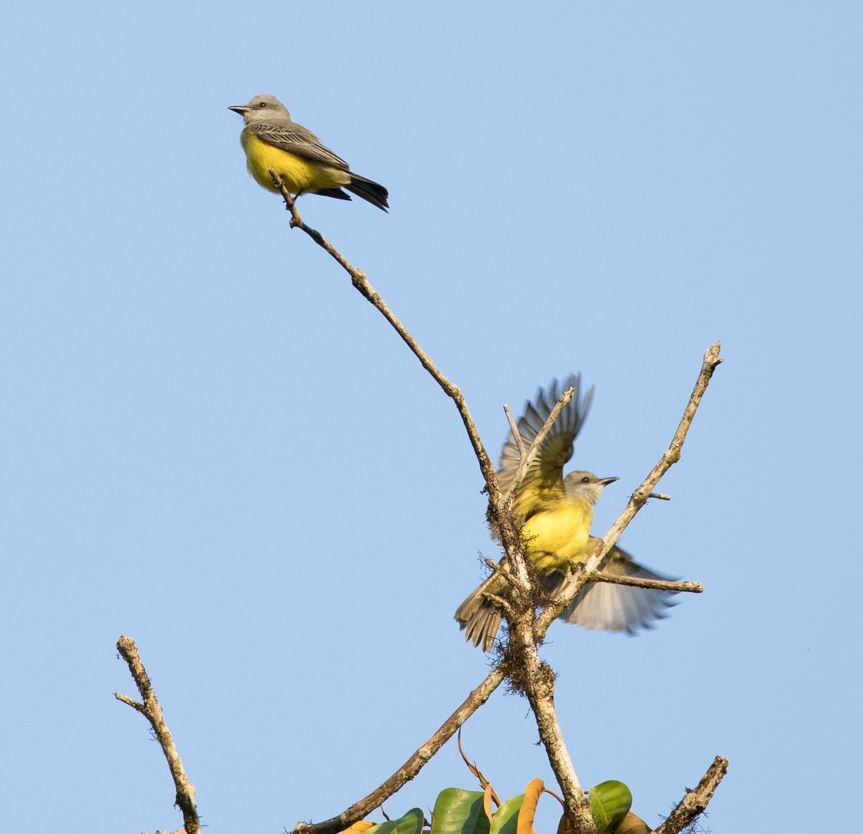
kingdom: Animalia
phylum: Chordata
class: Aves
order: Passeriformes
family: Tyrannidae
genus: Tyrannus
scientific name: Tyrannus melancholicus
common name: Tropical kingbird
